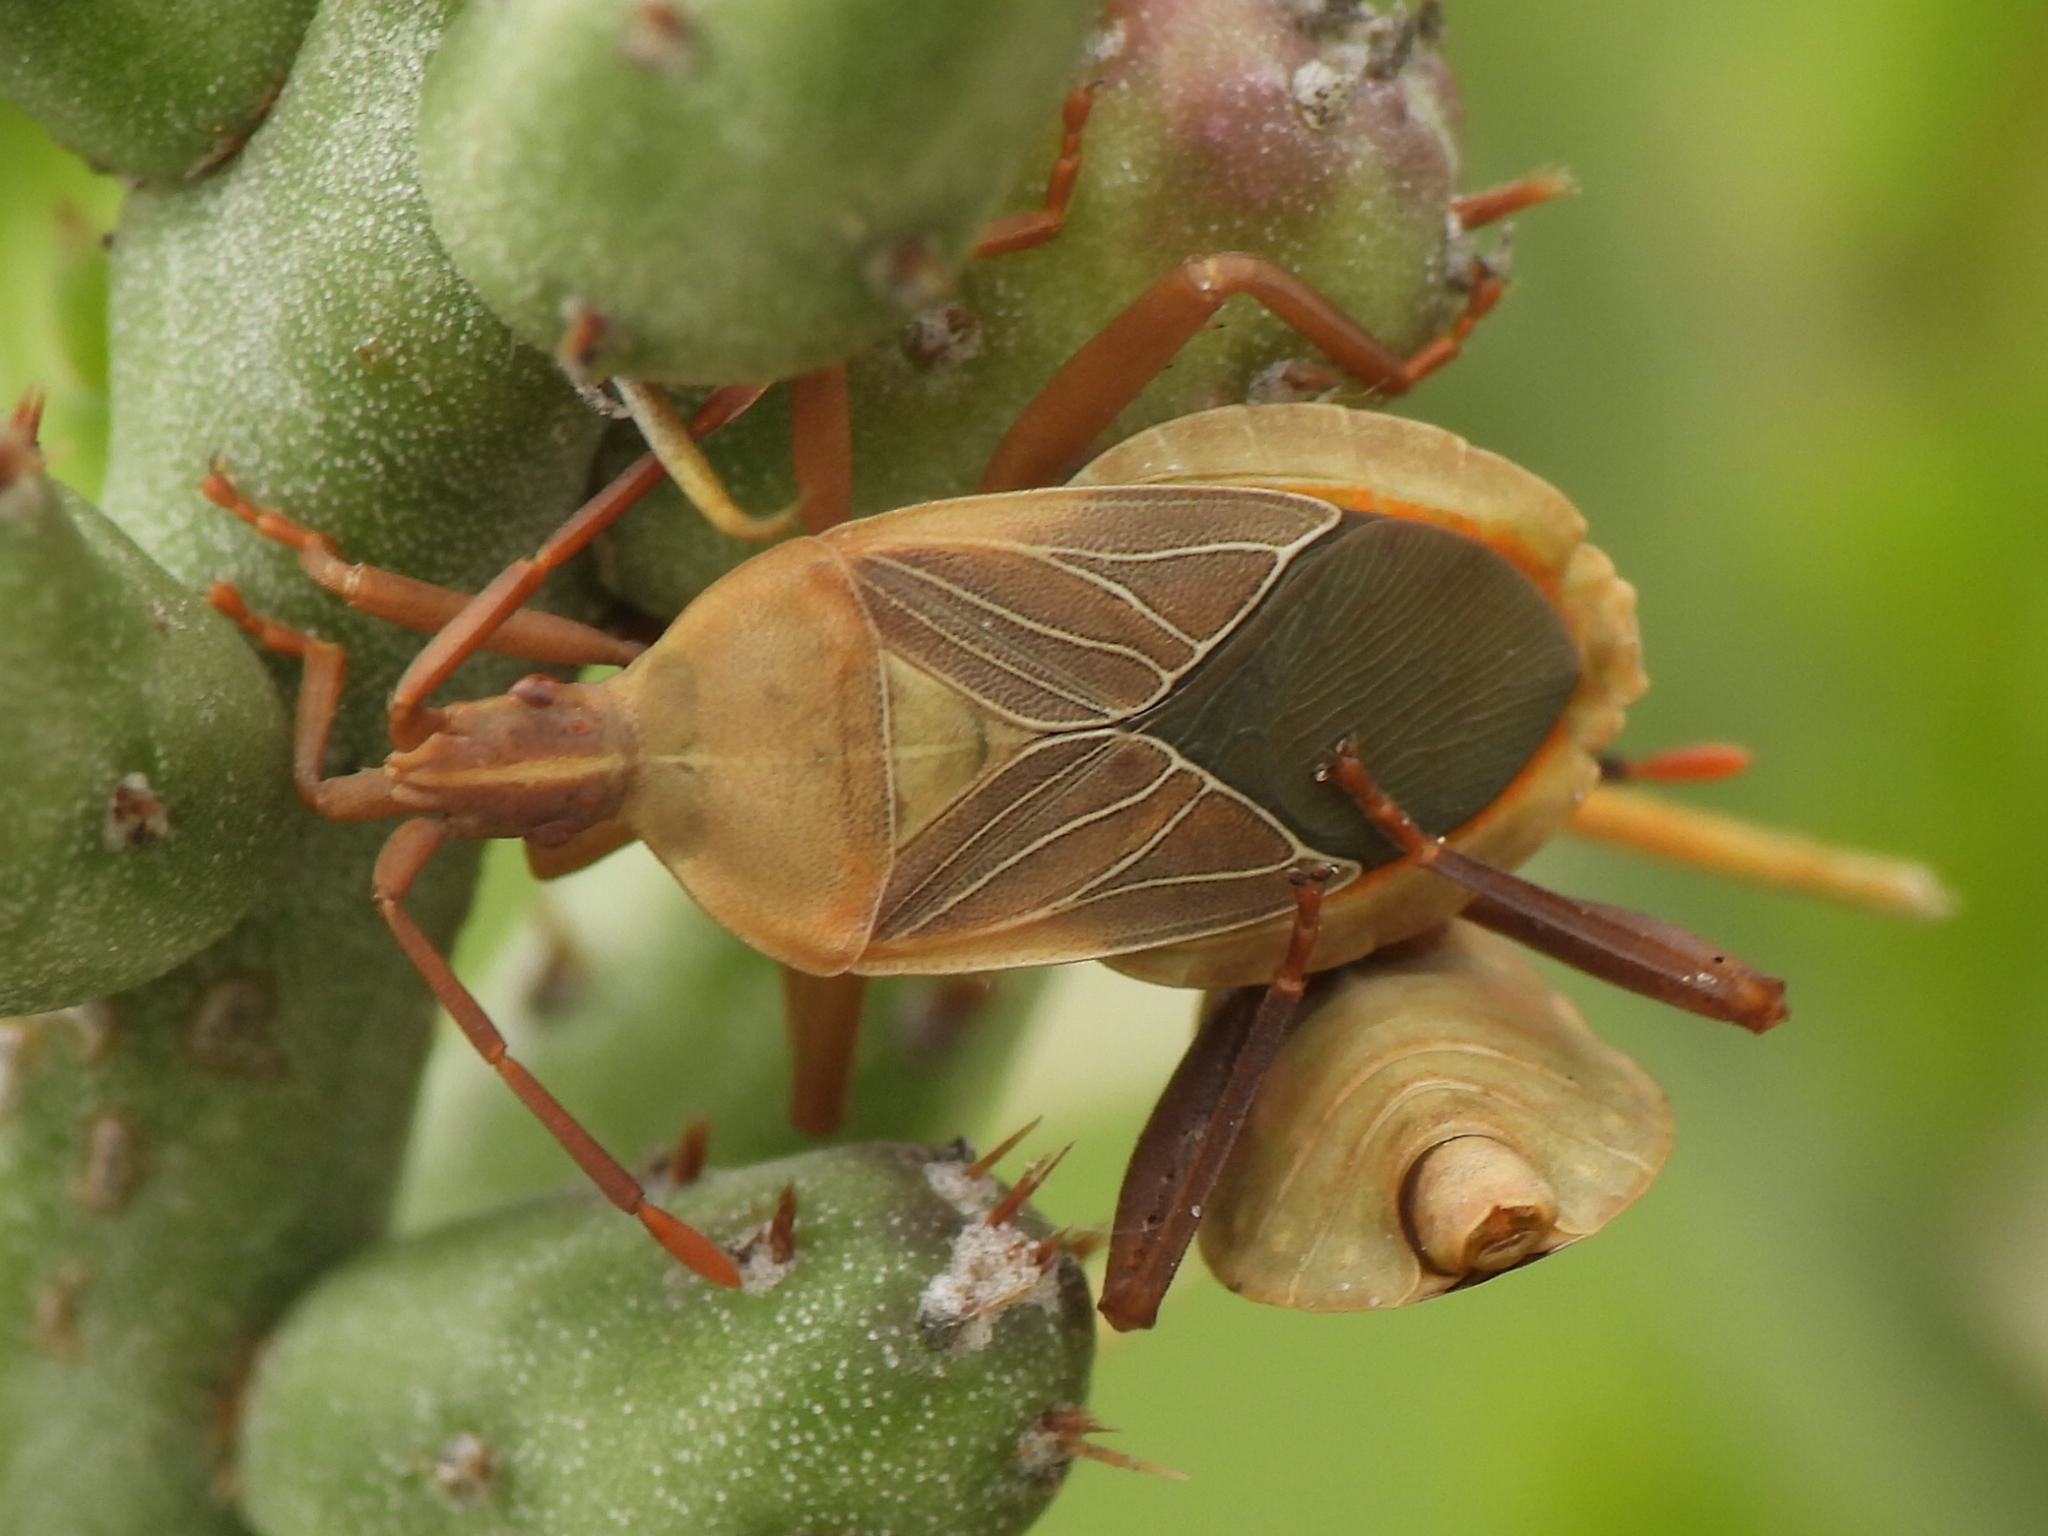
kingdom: Animalia
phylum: Arthropoda
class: Insecta
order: Hemiptera
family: Coreidae
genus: Chelinidea
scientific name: Chelinidea vittiger
